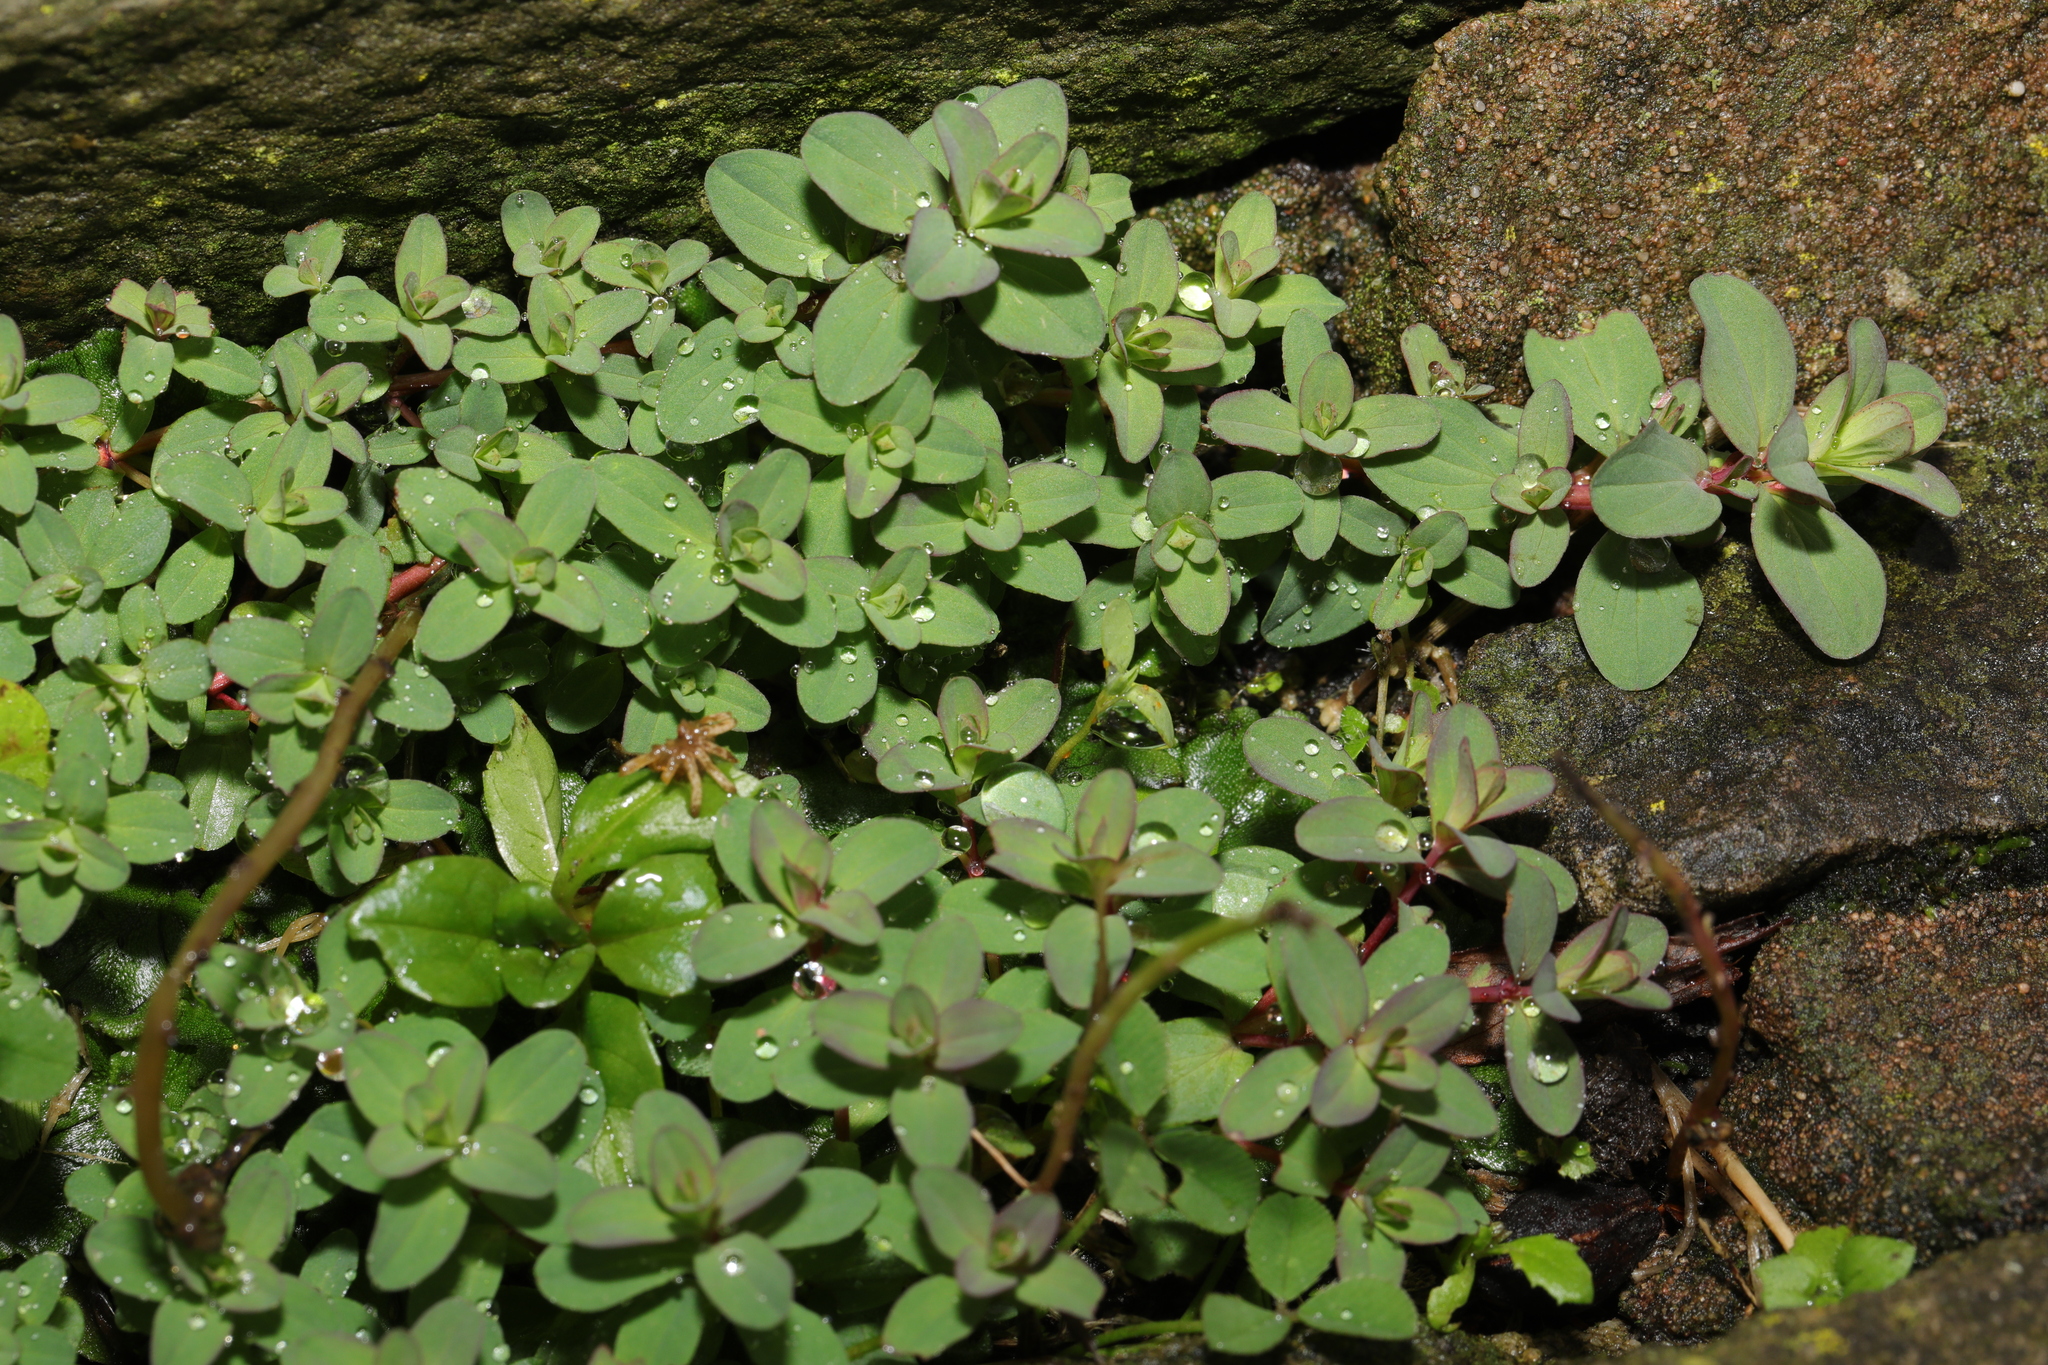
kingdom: Plantae
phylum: Tracheophyta
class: Magnoliopsida
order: Malpighiales
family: Hypericaceae
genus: Hypericum
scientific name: Hypericum
